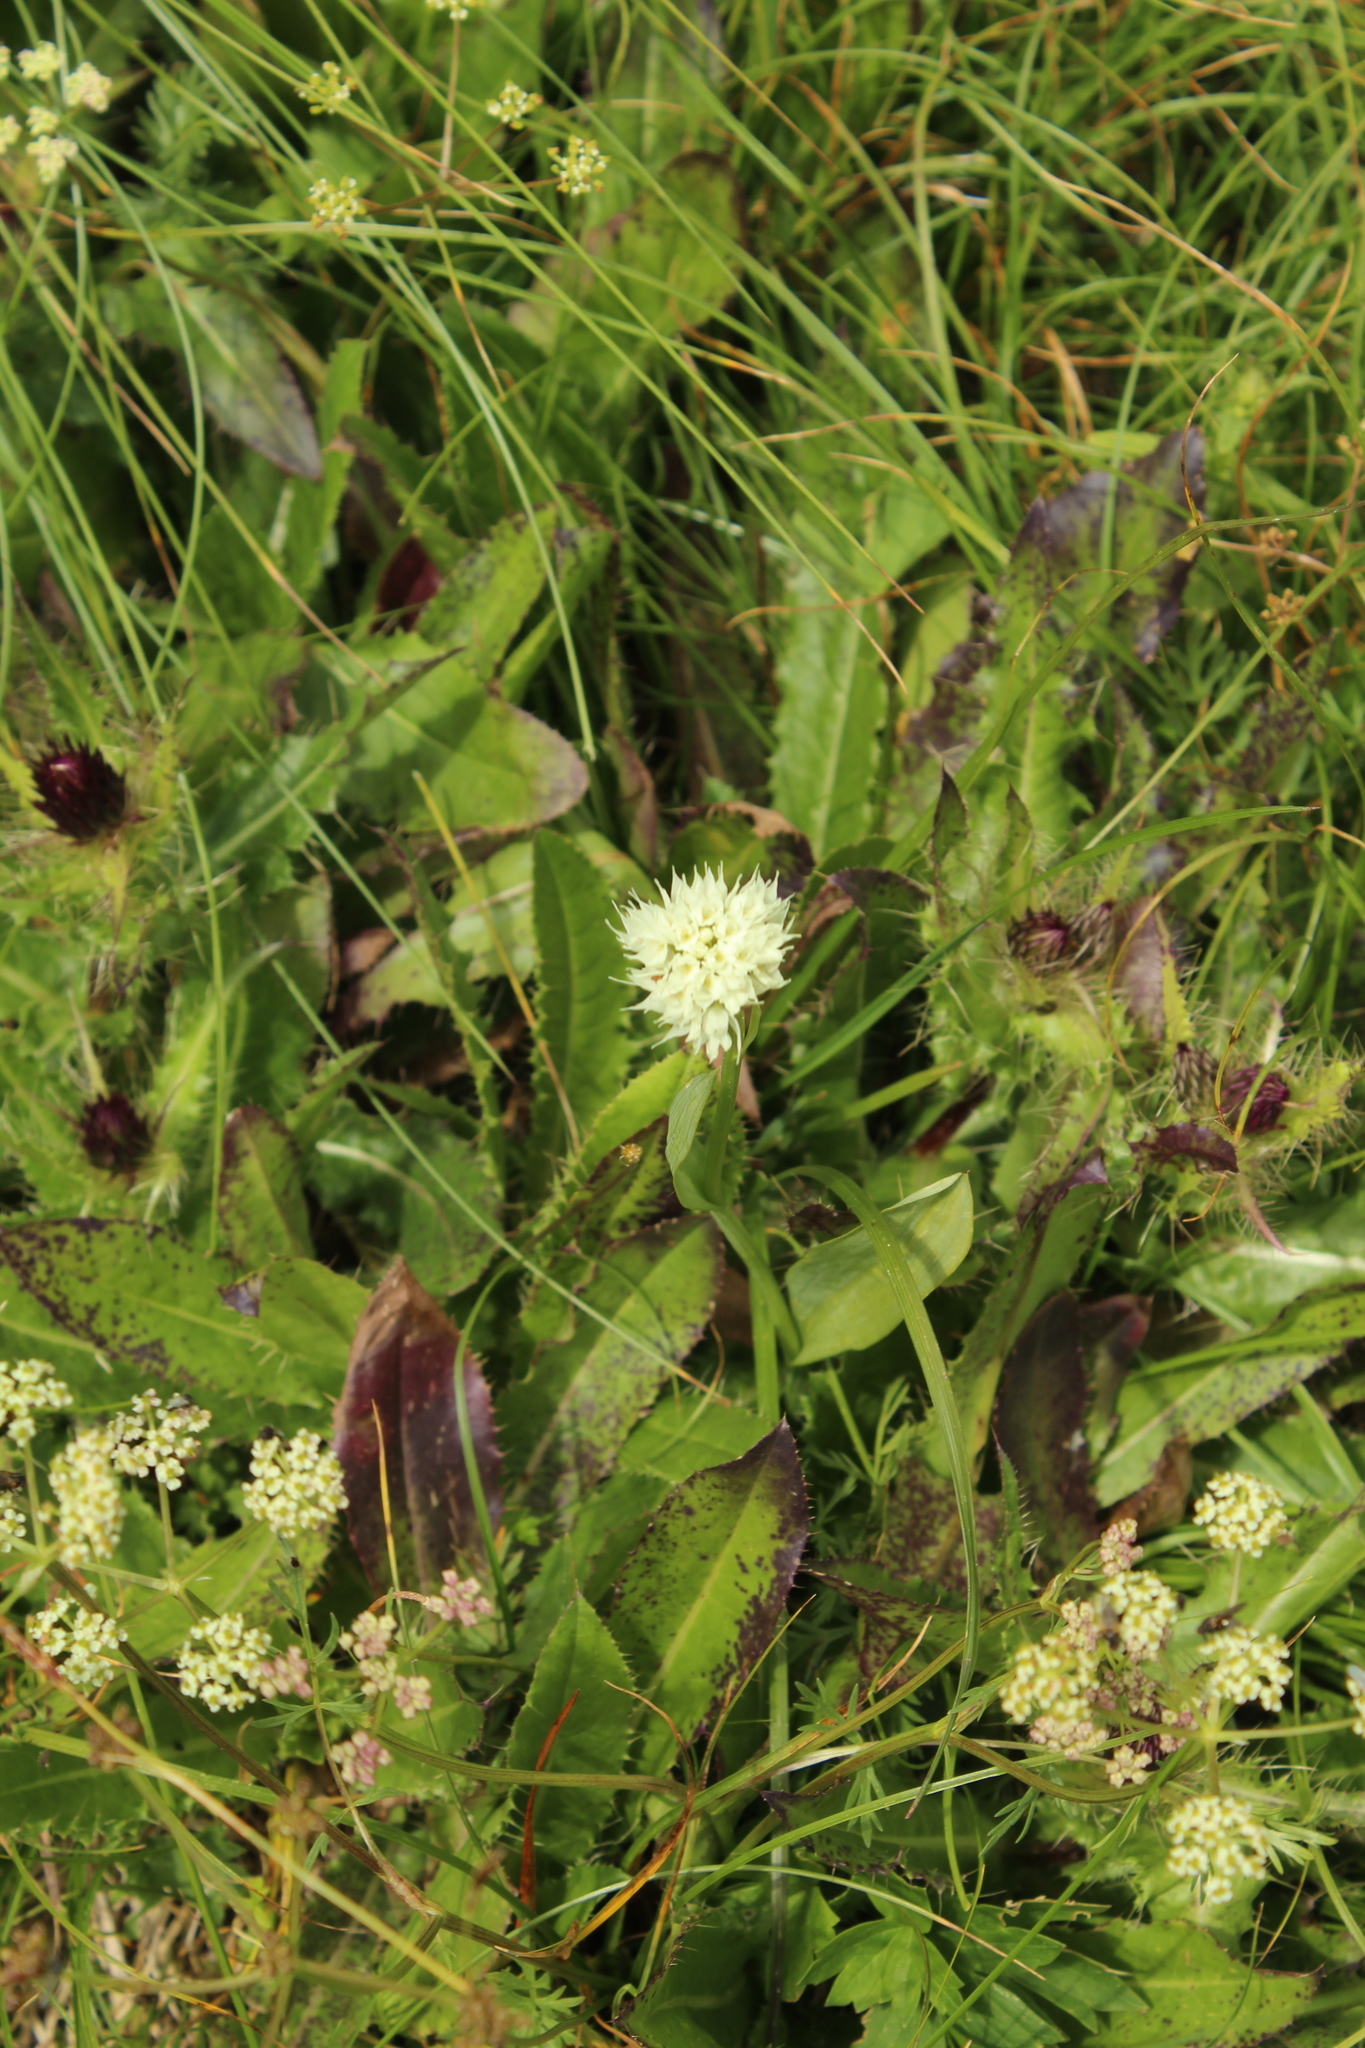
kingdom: Plantae
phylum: Tracheophyta
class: Liliopsida
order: Asparagales
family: Orchidaceae
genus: Traunsteinera
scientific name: Traunsteinera sphaerica
